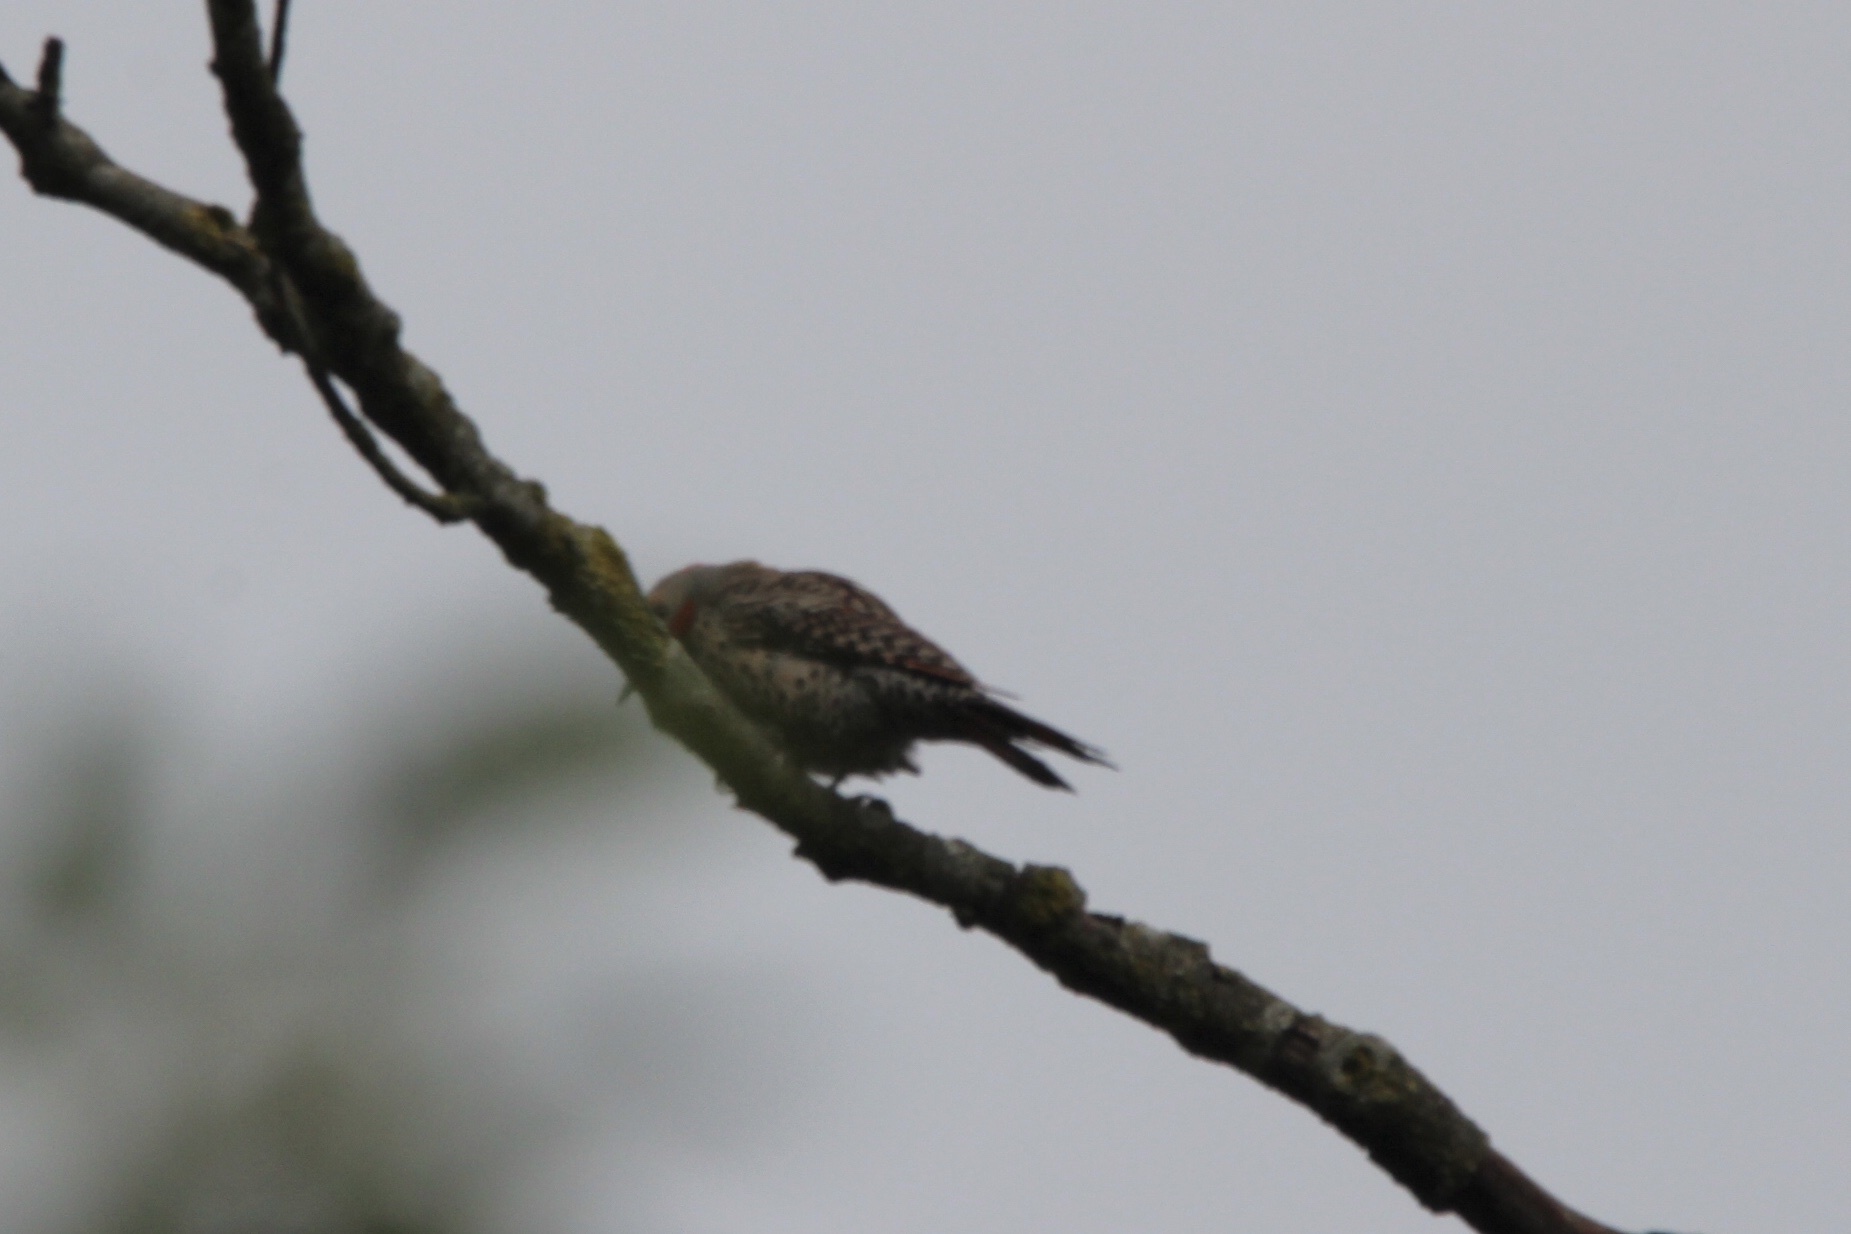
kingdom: Animalia
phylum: Chordata
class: Aves
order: Piciformes
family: Picidae
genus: Colaptes
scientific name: Colaptes
